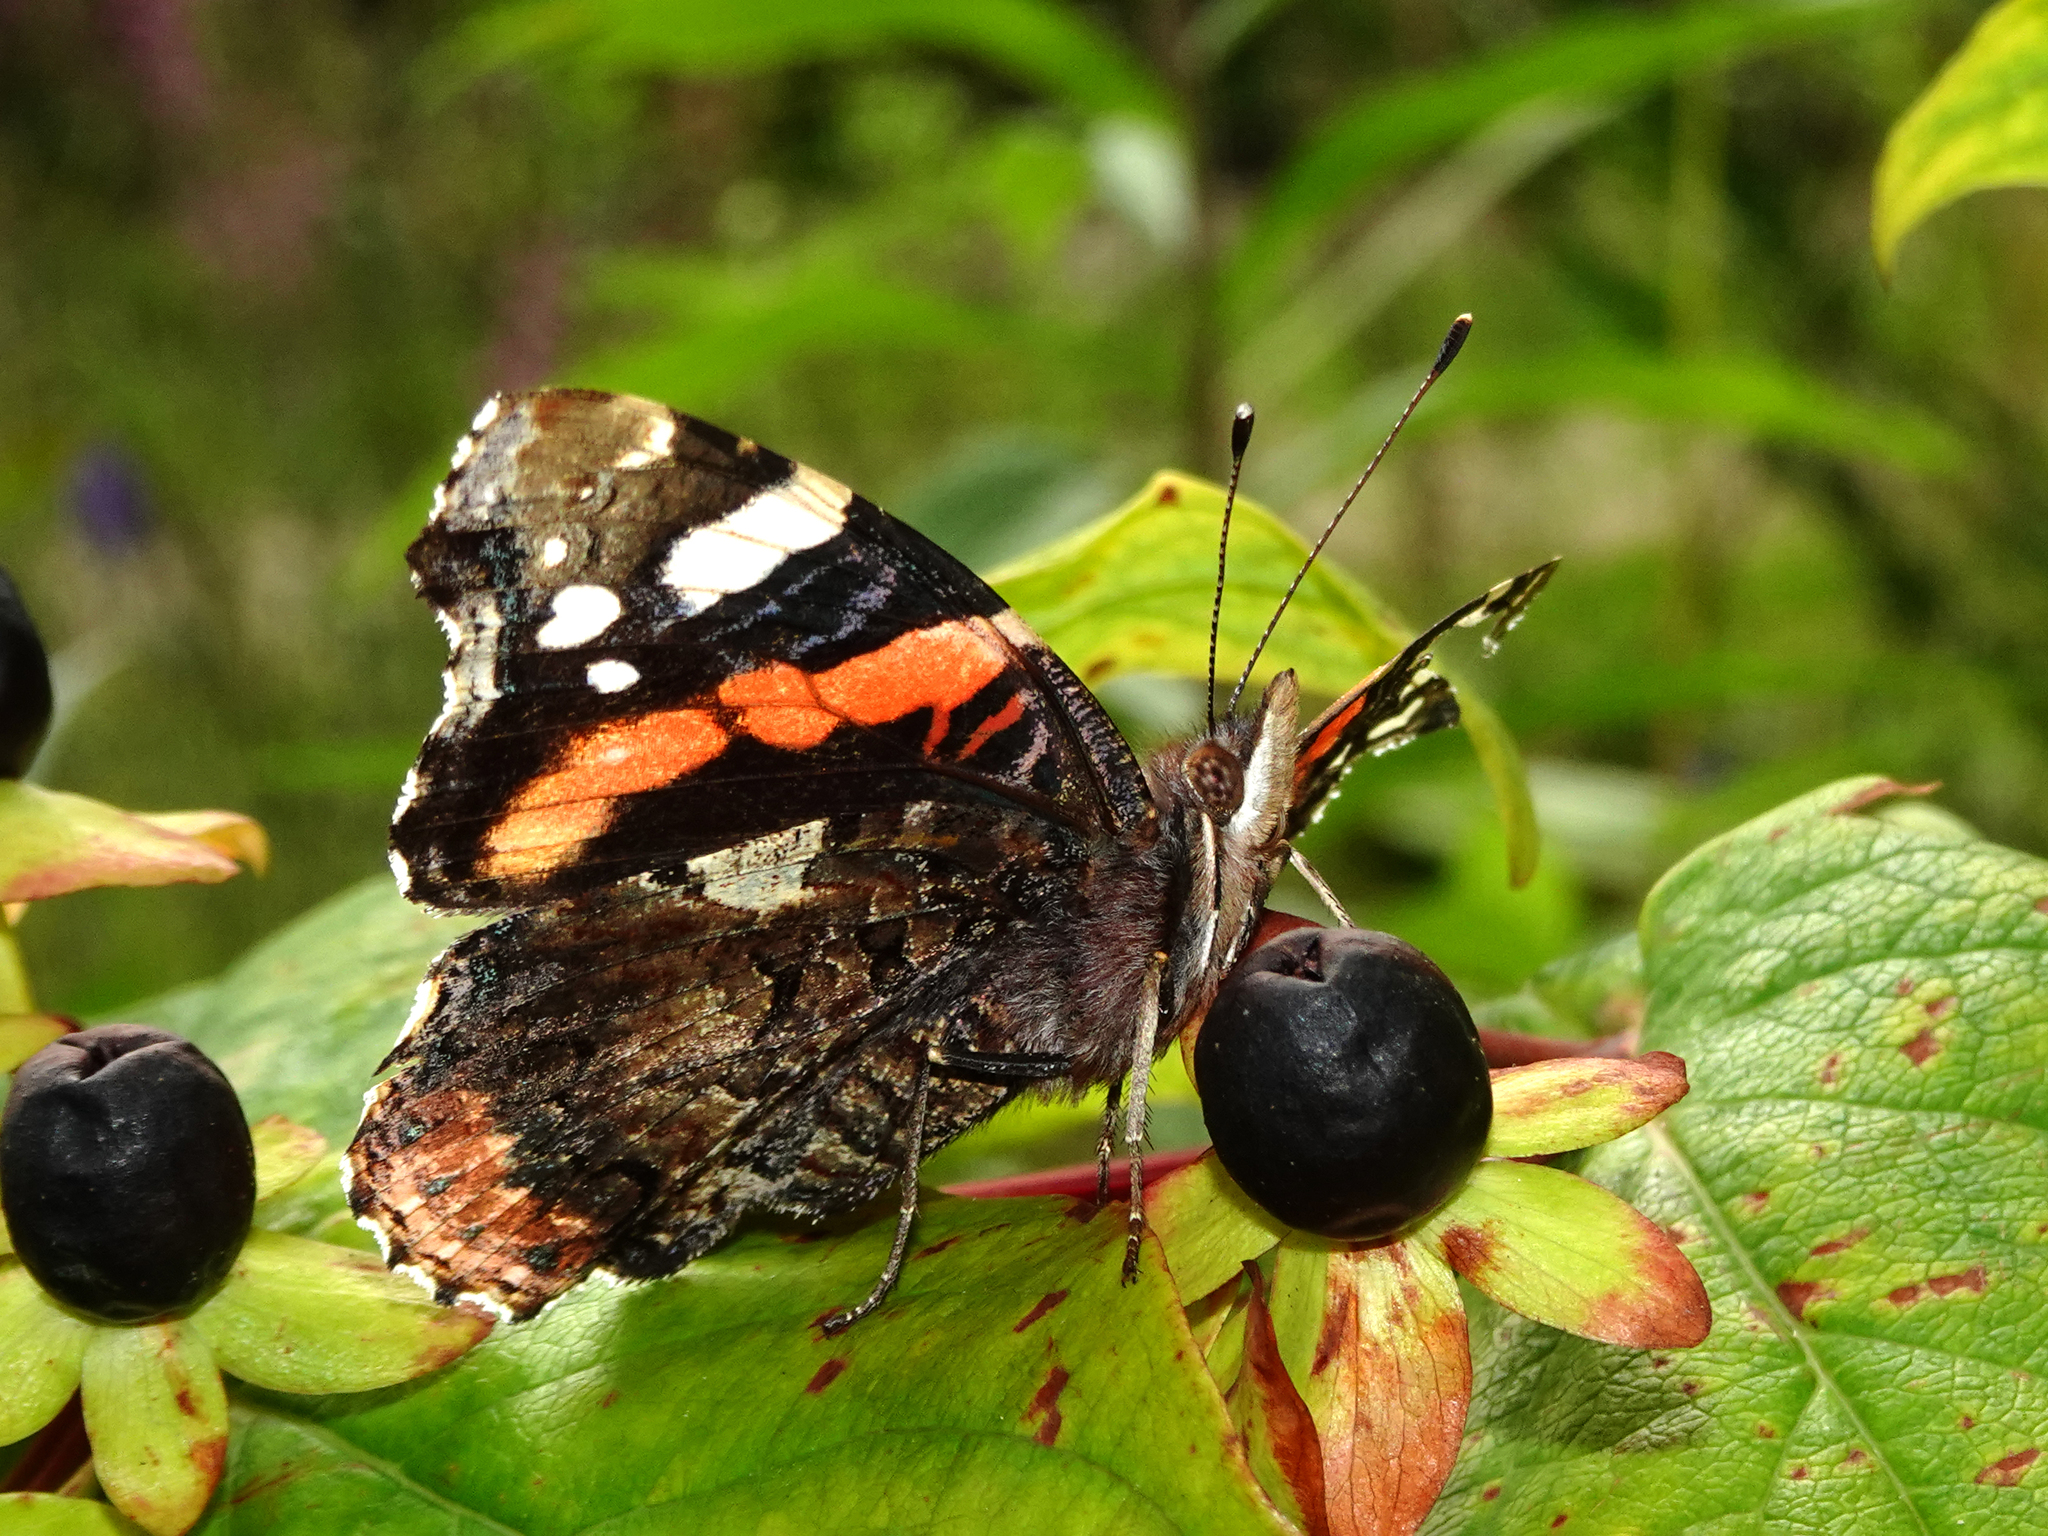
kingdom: Animalia
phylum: Arthropoda
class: Insecta
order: Lepidoptera
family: Nymphalidae
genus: Vanessa
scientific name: Vanessa atalanta
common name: Red admiral
